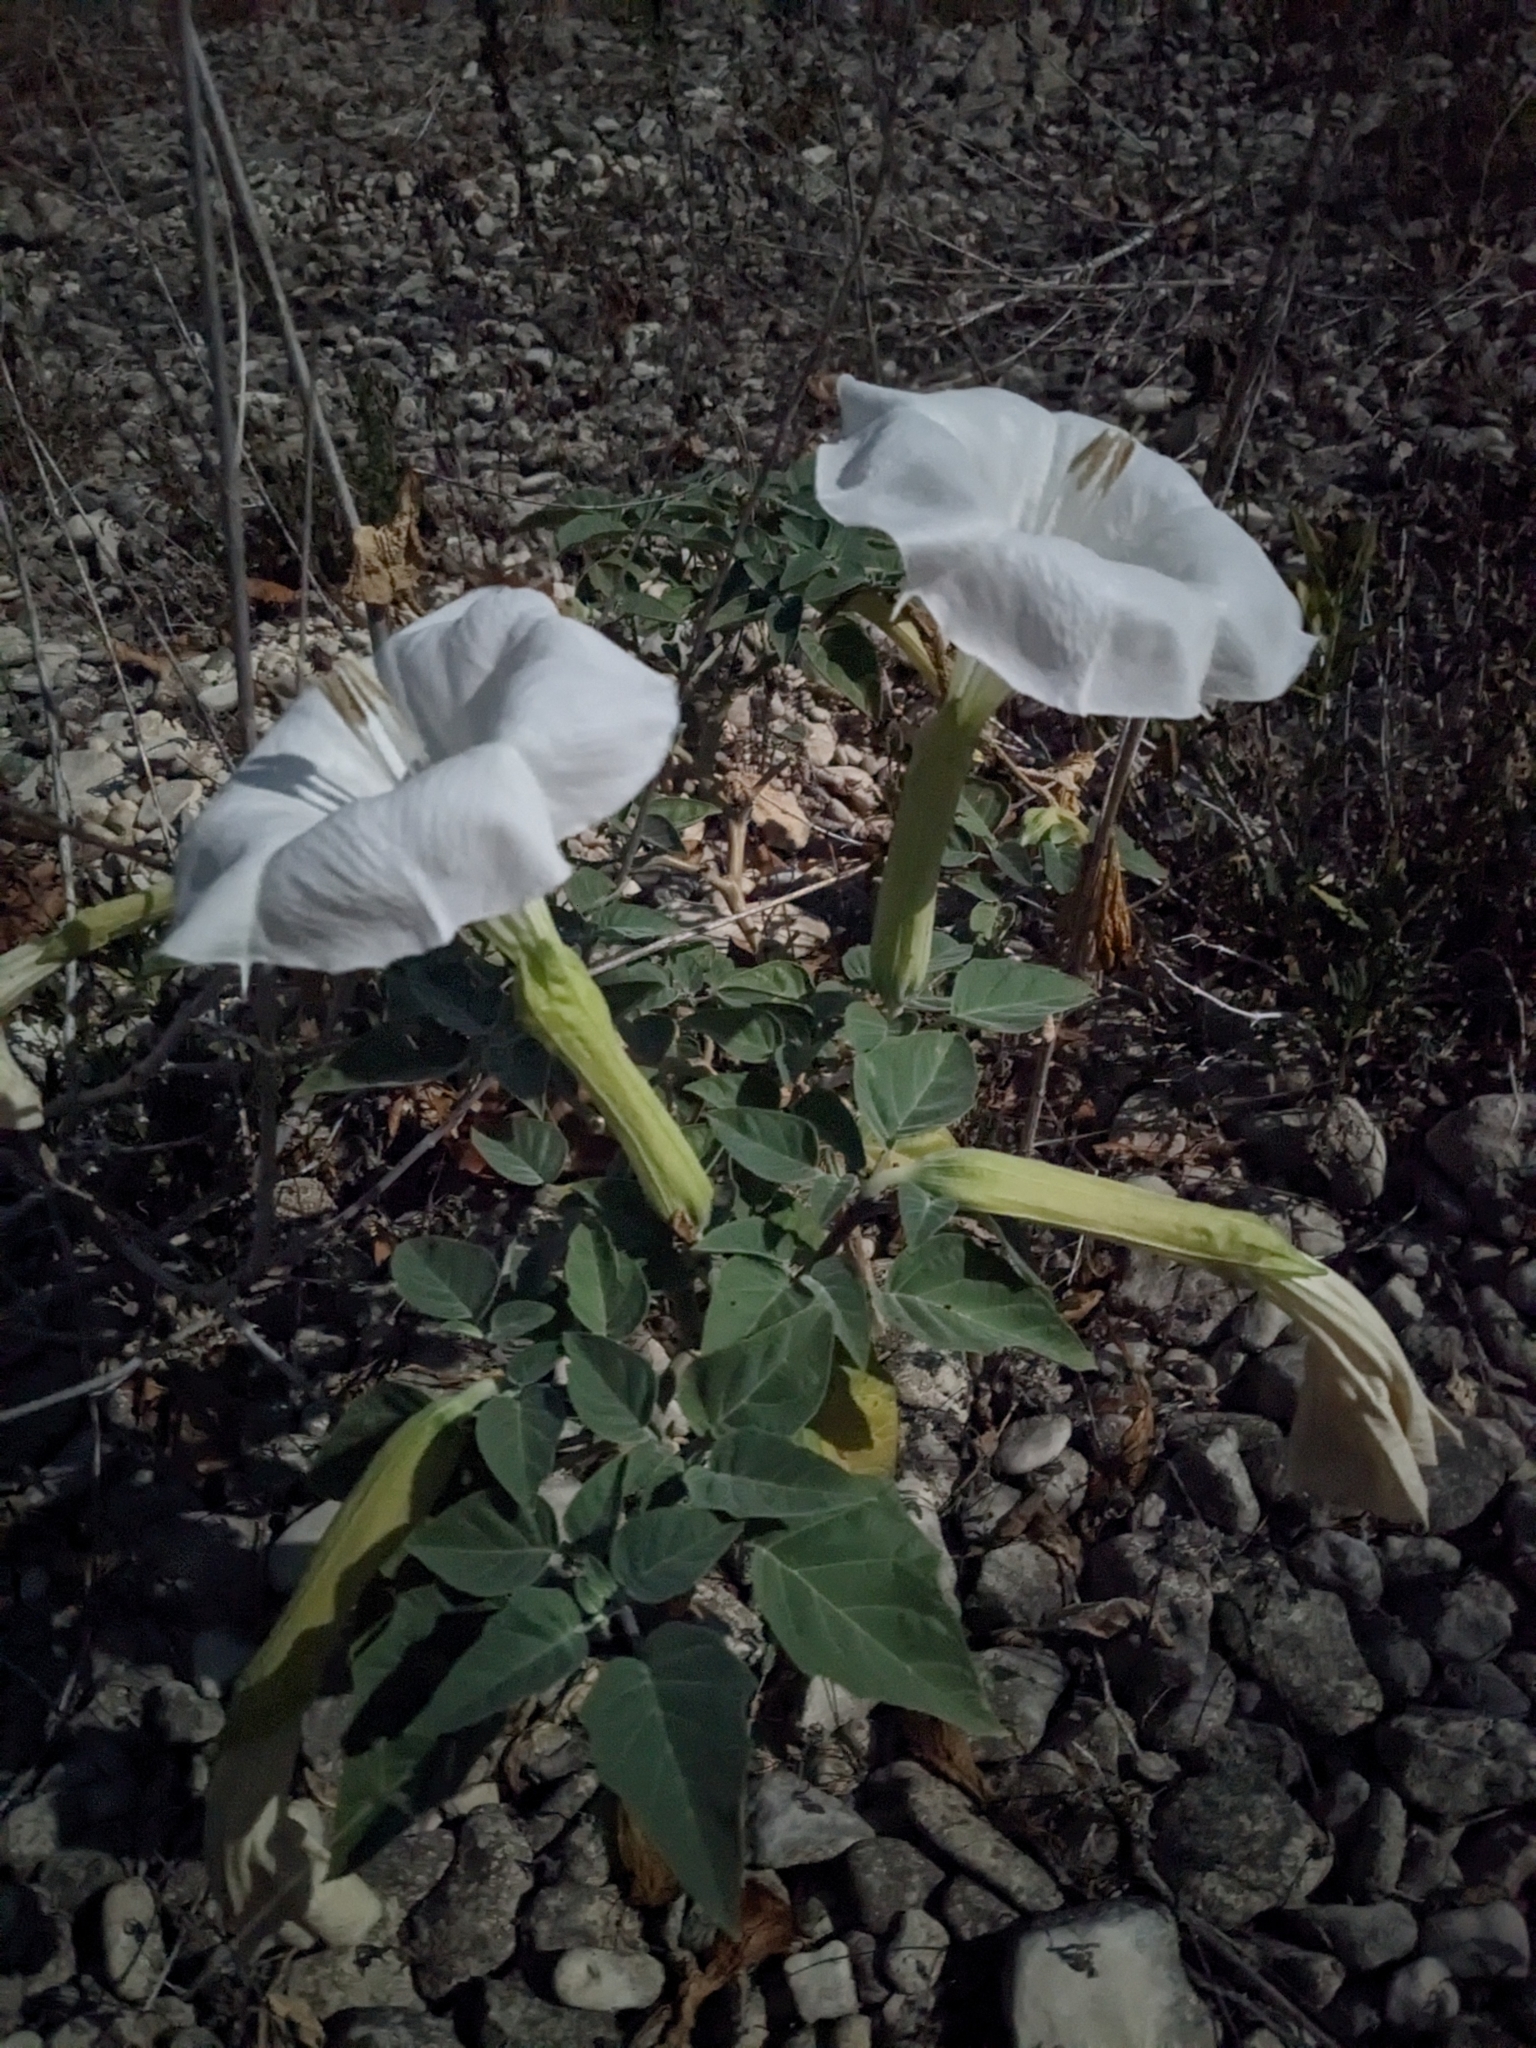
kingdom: Plantae
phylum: Tracheophyta
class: Magnoliopsida
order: Solanales
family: Solanaceae
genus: Datura
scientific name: Datura wrightii
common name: Sacred thorn-apple
